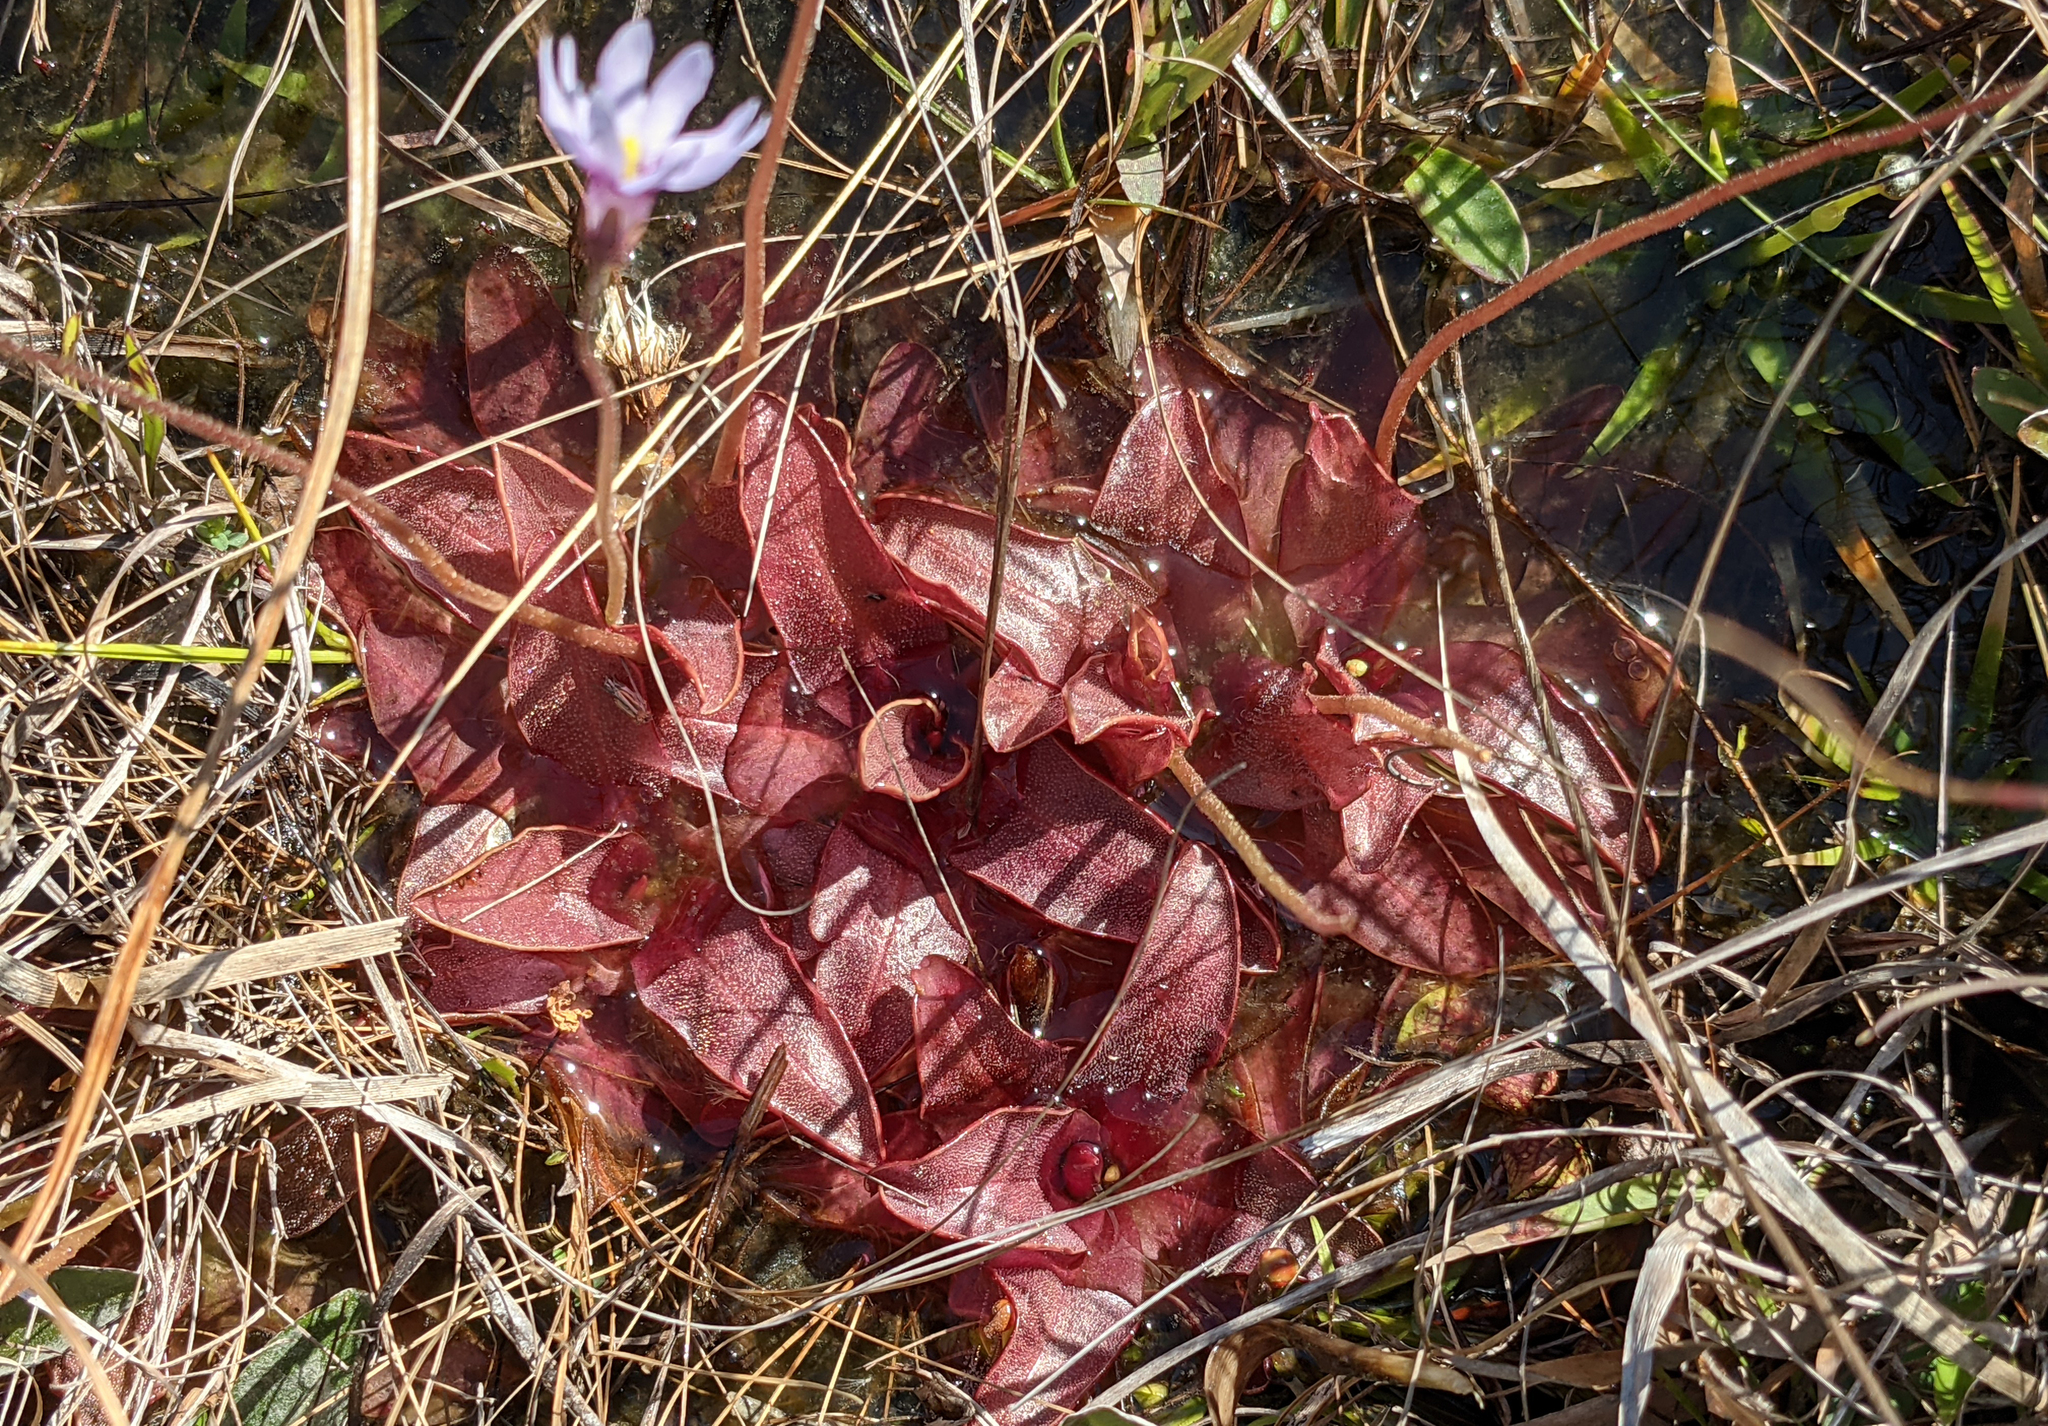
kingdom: Plantae
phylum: Tracheophyta
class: Magnoliopsida
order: Lamiales
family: Lentibulariaceae
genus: Pinguicula
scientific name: Pinguicula planifolia
